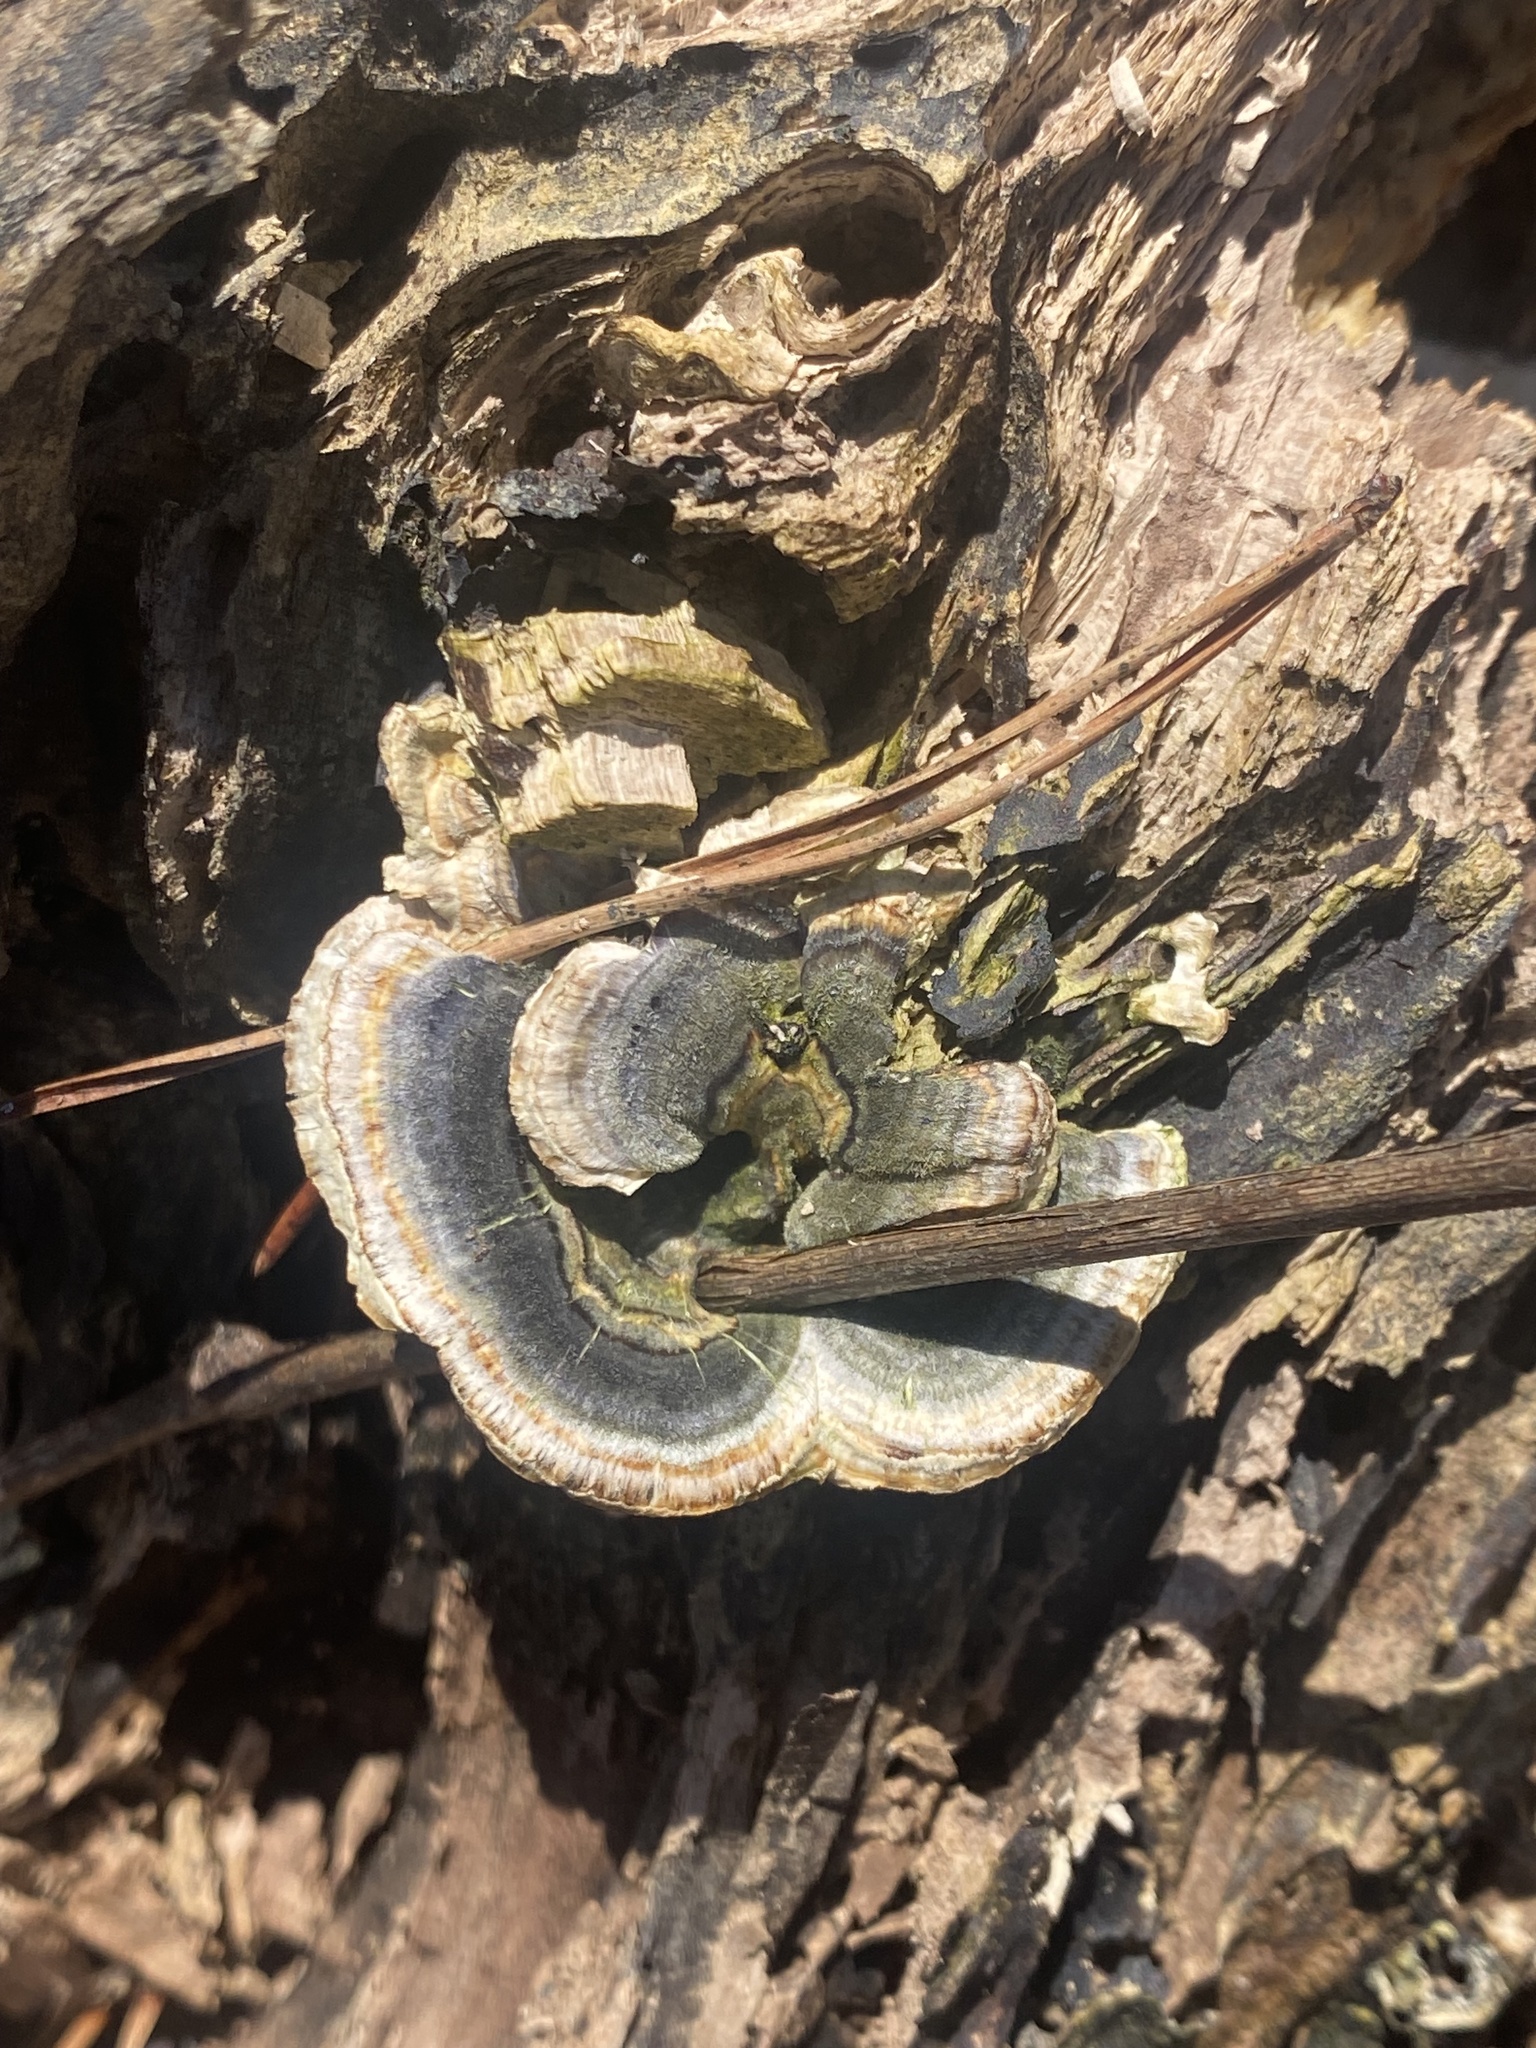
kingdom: Fungi
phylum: Basidiomycota
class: Agaricomycetes
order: Polyporales
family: Polyporaceae
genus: Trametes
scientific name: Trametes versicolor
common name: Turkeytail
